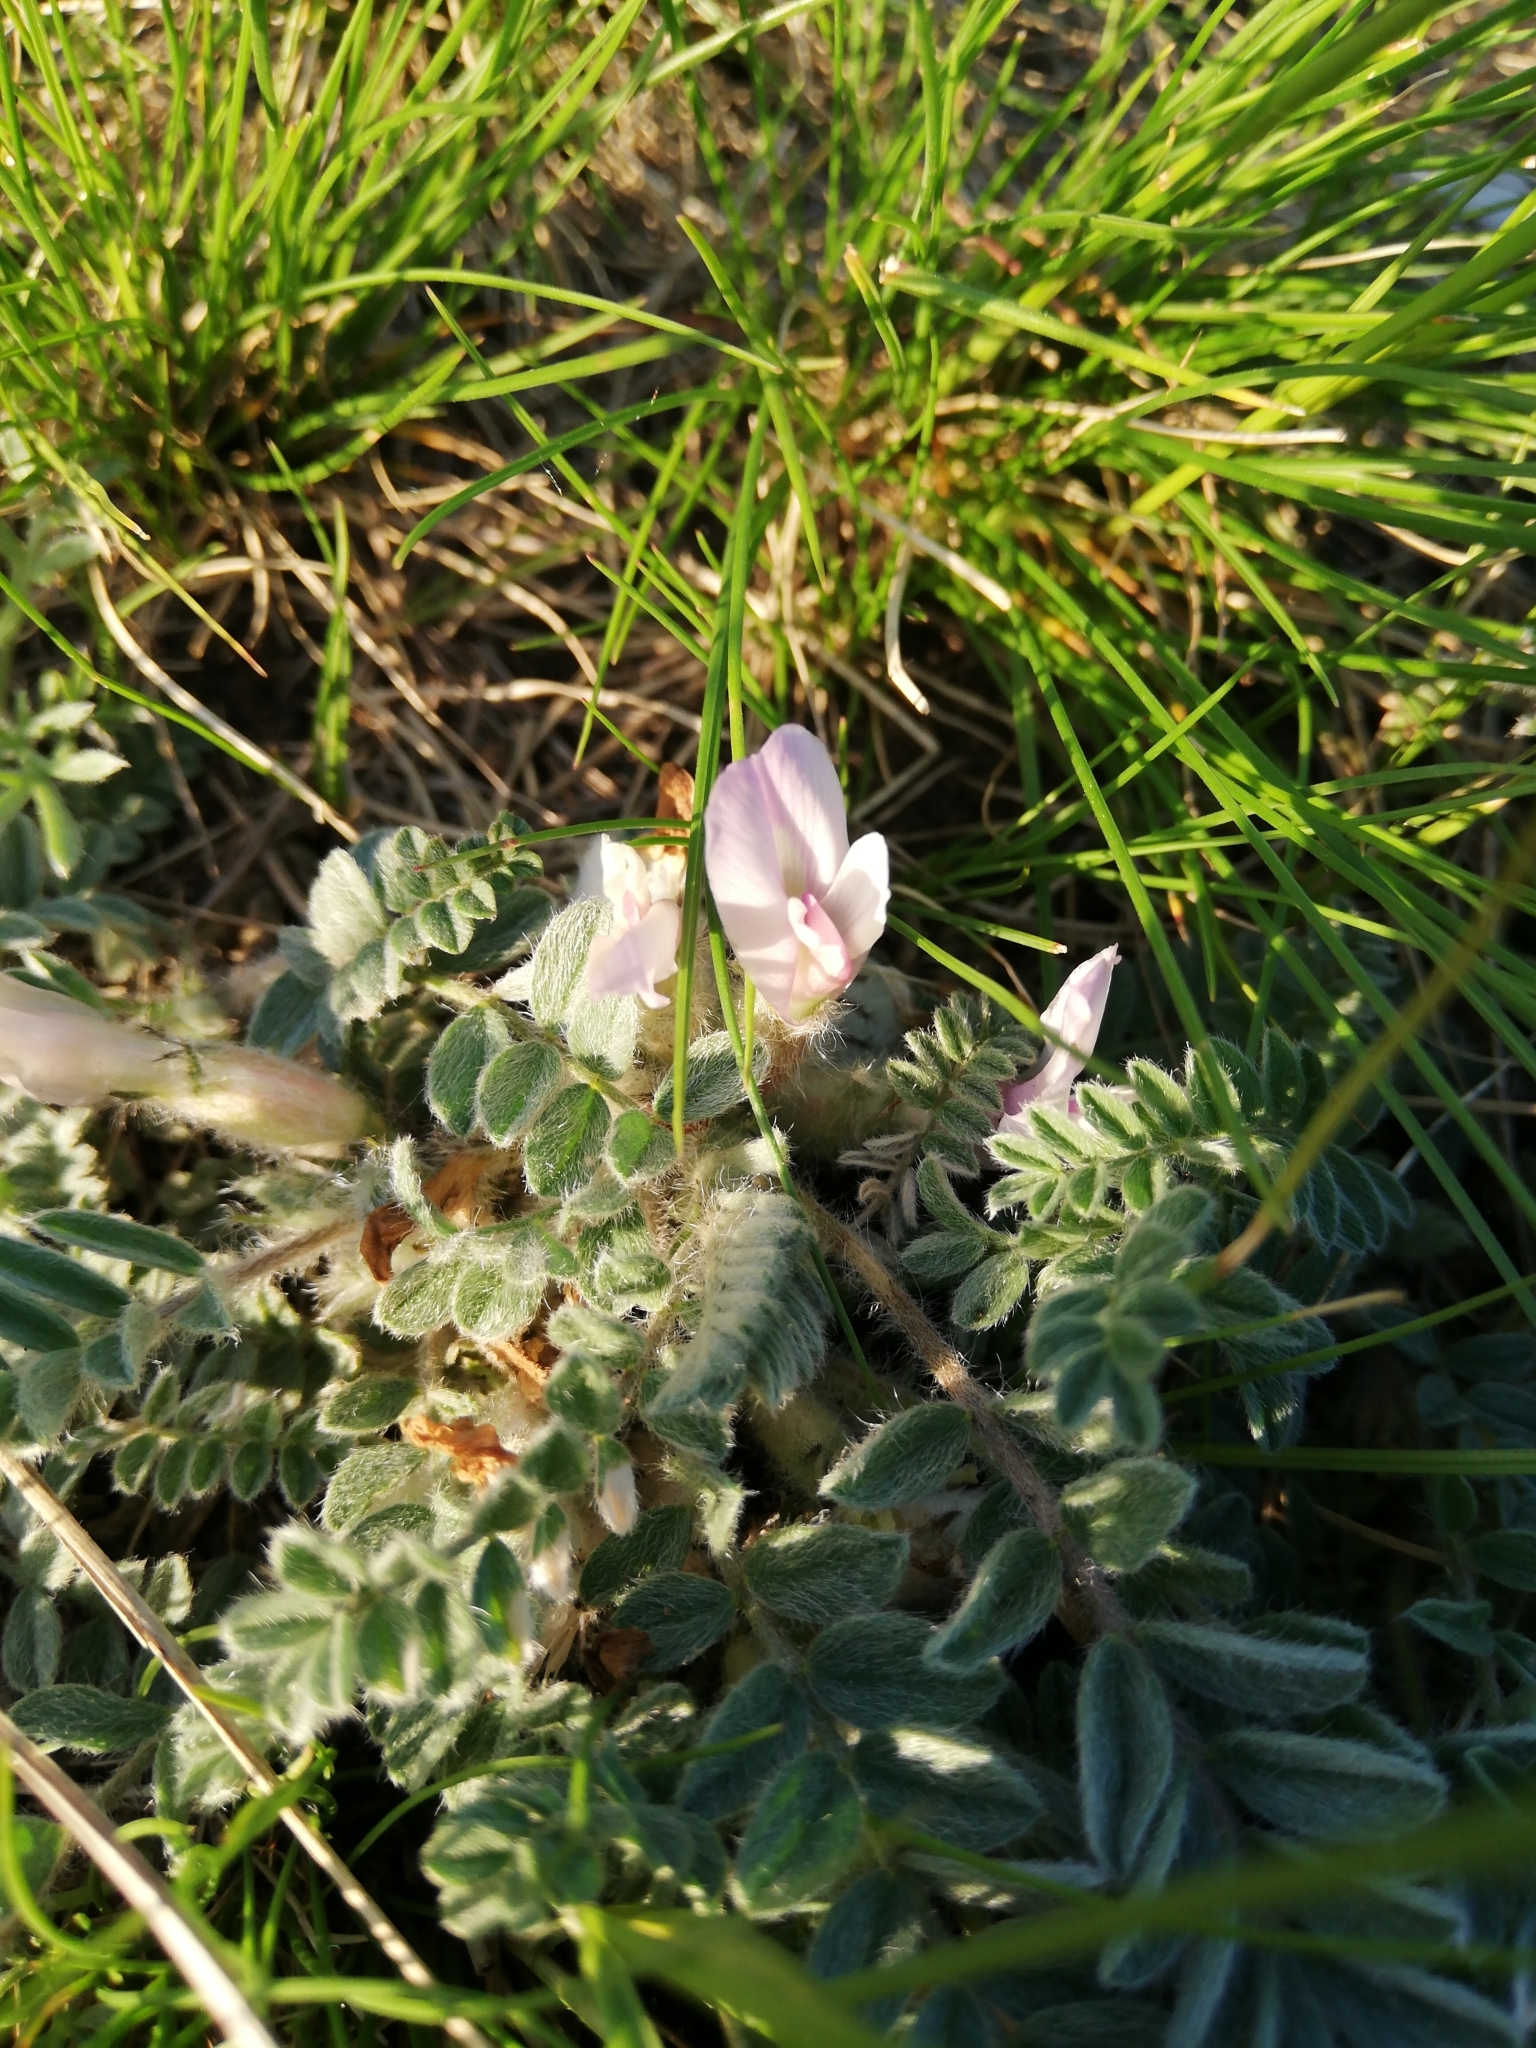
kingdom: Plantae
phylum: Tracheophyta
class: Magnoliopsida
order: Fabales
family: Fabaceae
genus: Astragalus
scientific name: Astragalus testiculatus
